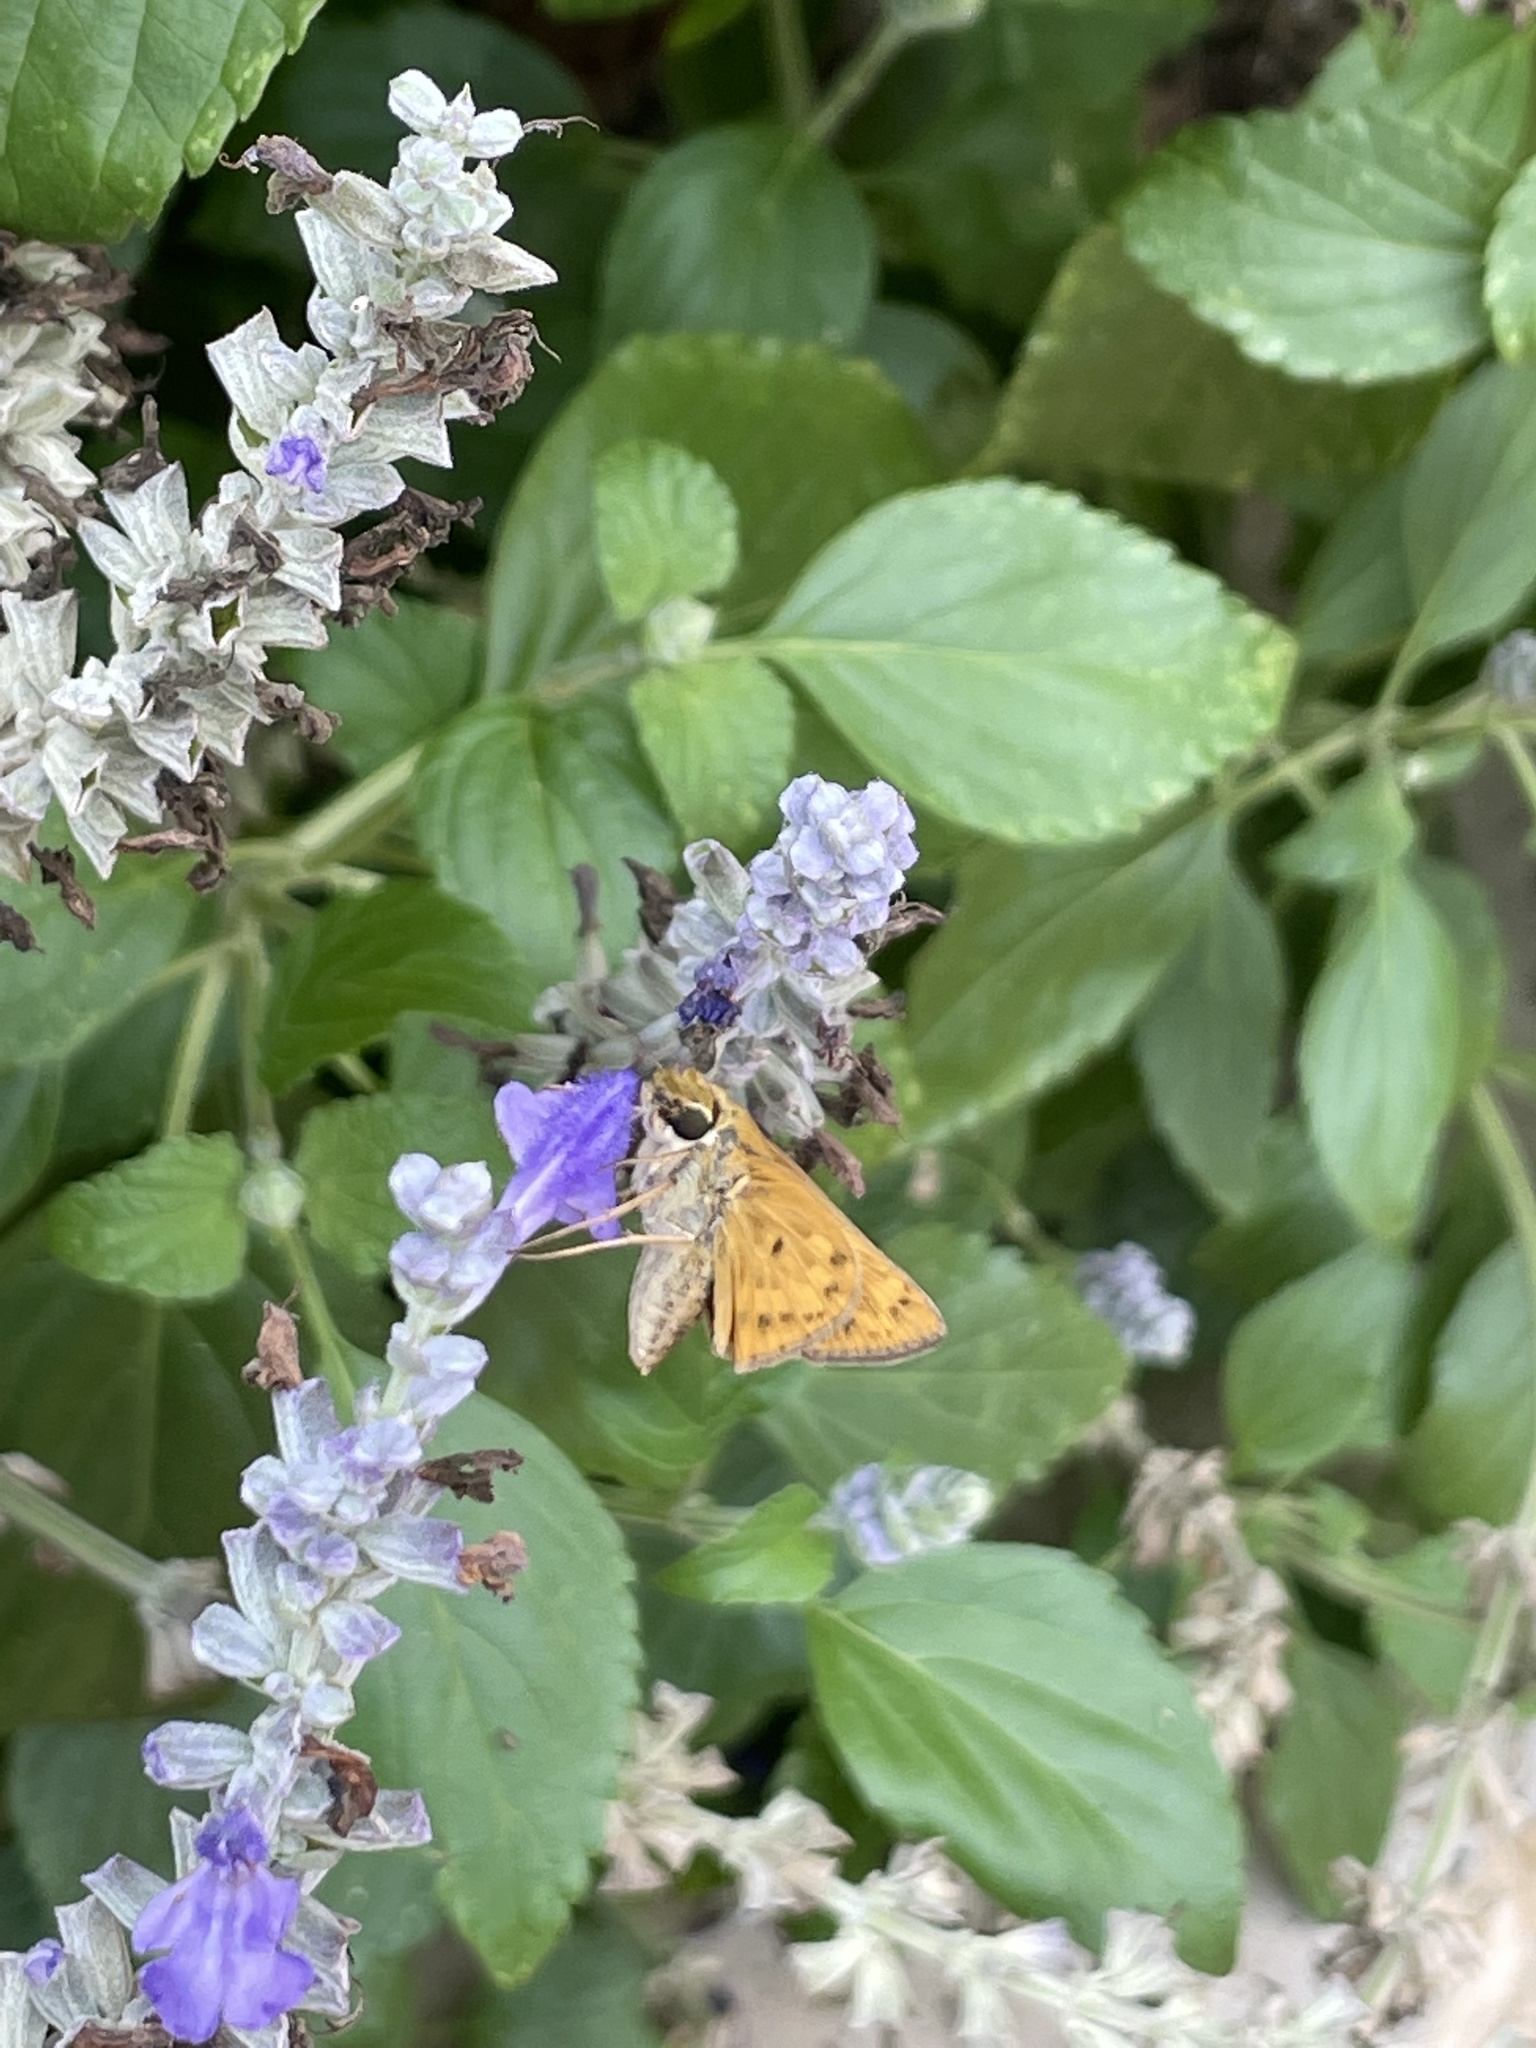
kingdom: Animalia
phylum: Arthropoda
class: Insecta
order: Lepidoptera
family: Hesperiidae
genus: Hylephila
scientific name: Hylephila phyleus
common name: Fiery skipper
